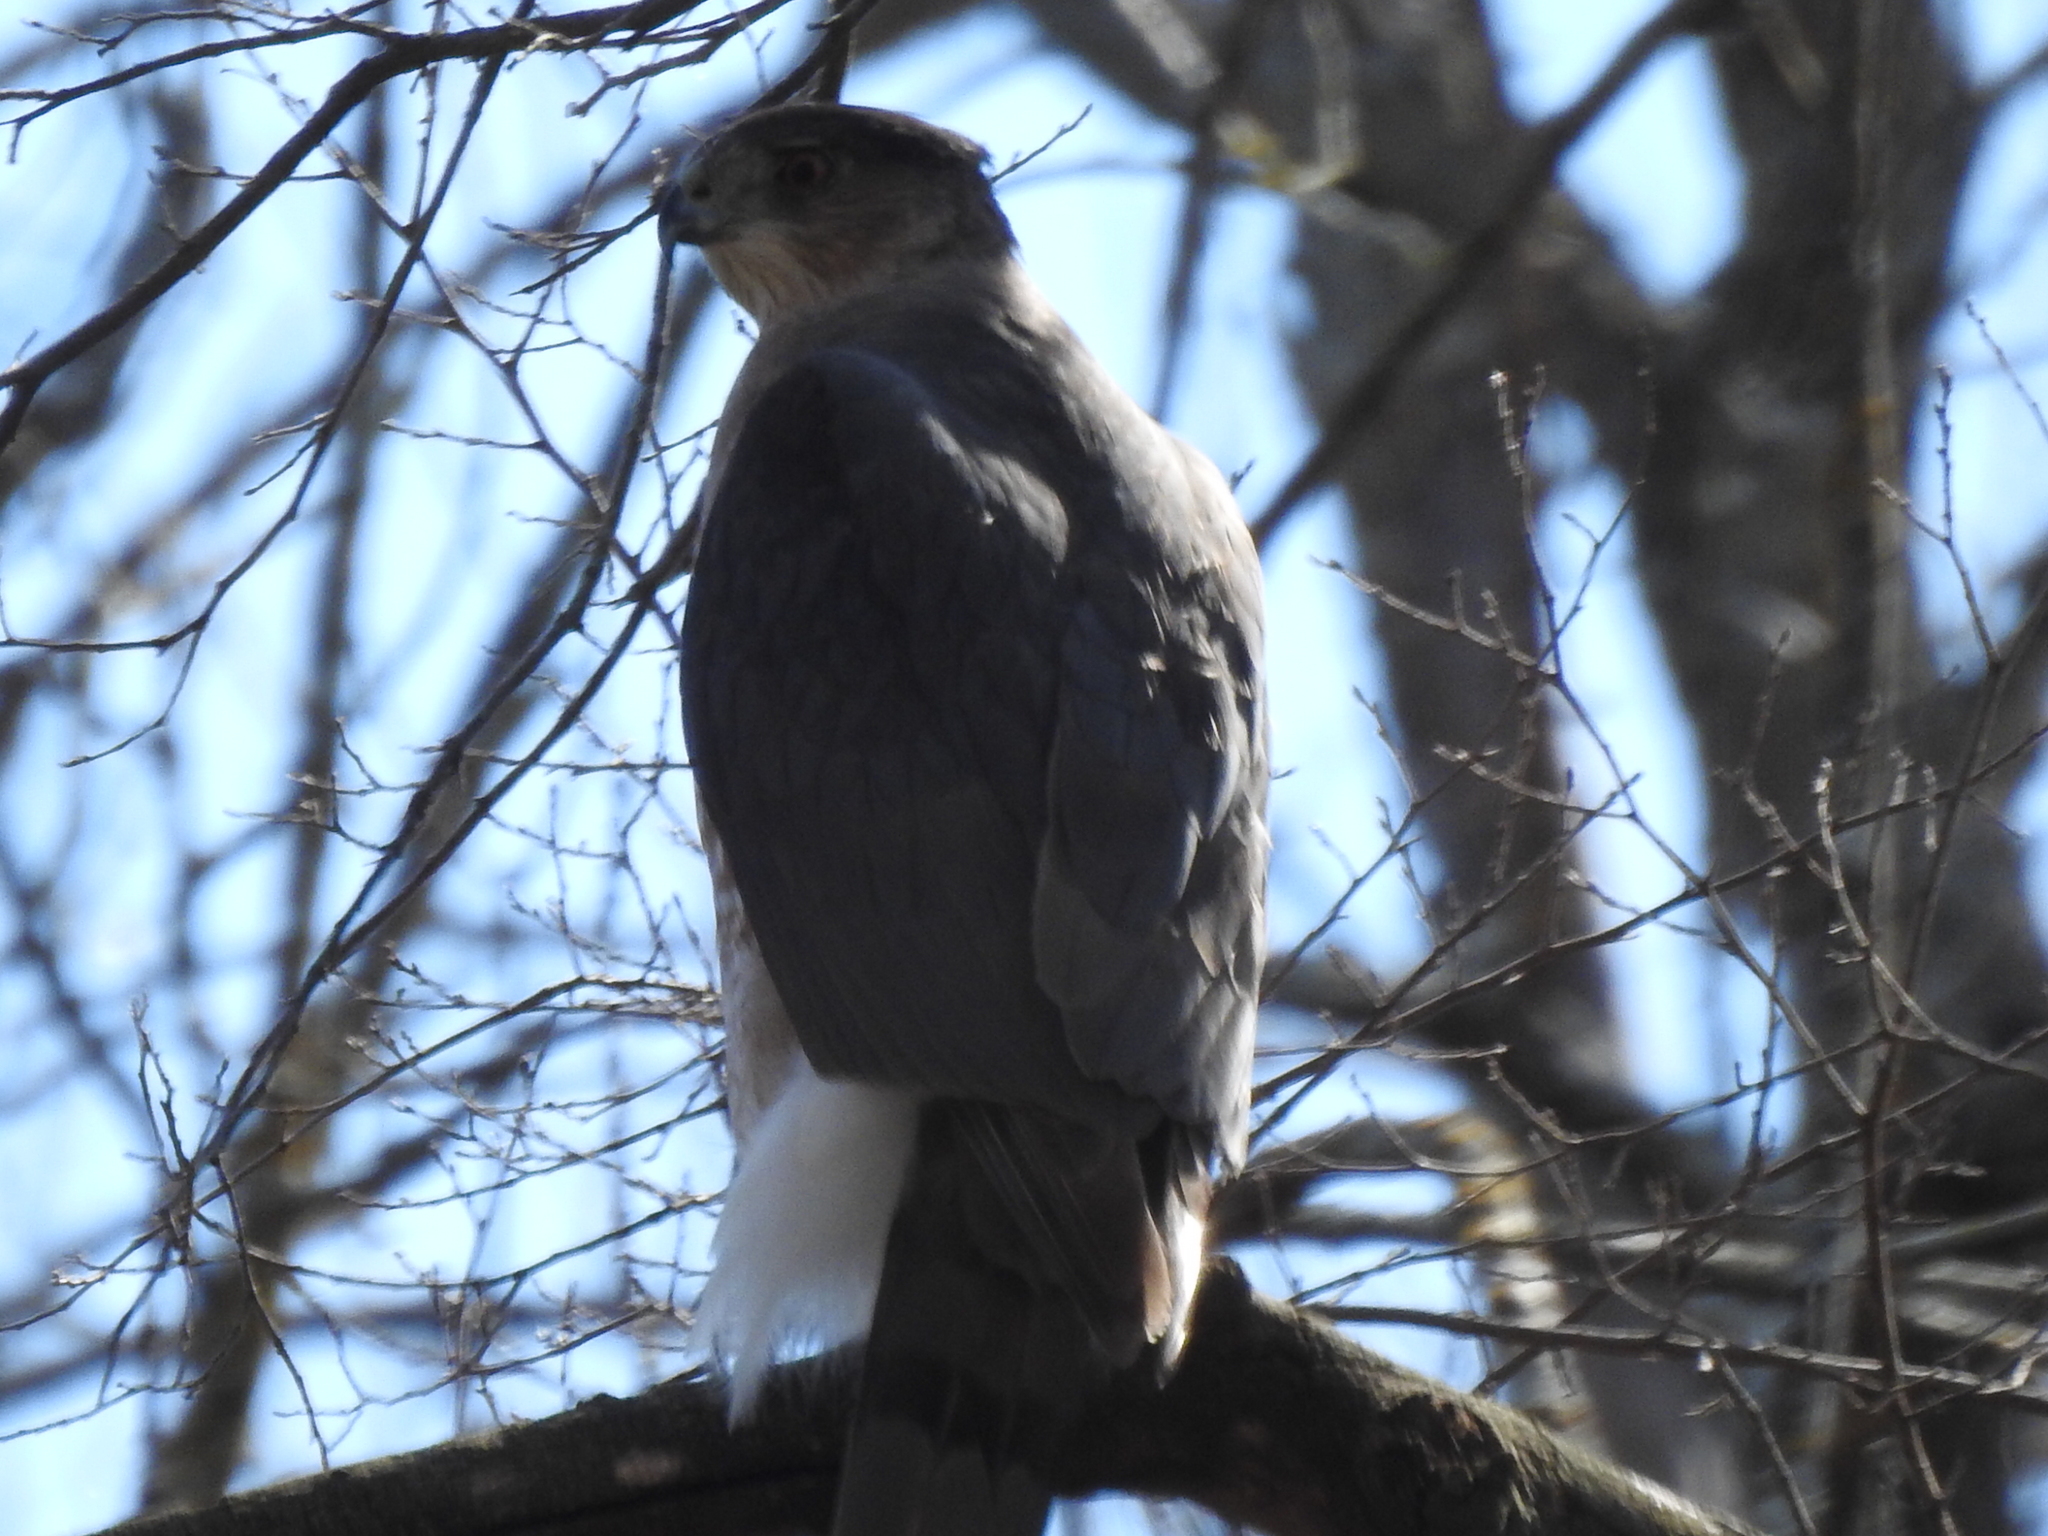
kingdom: Animalia
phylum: Chordata
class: Aves
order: Accipitriformes
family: Accipitridae
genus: Accipiter
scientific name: Accipiter cooperii
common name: Cooper's hawk
